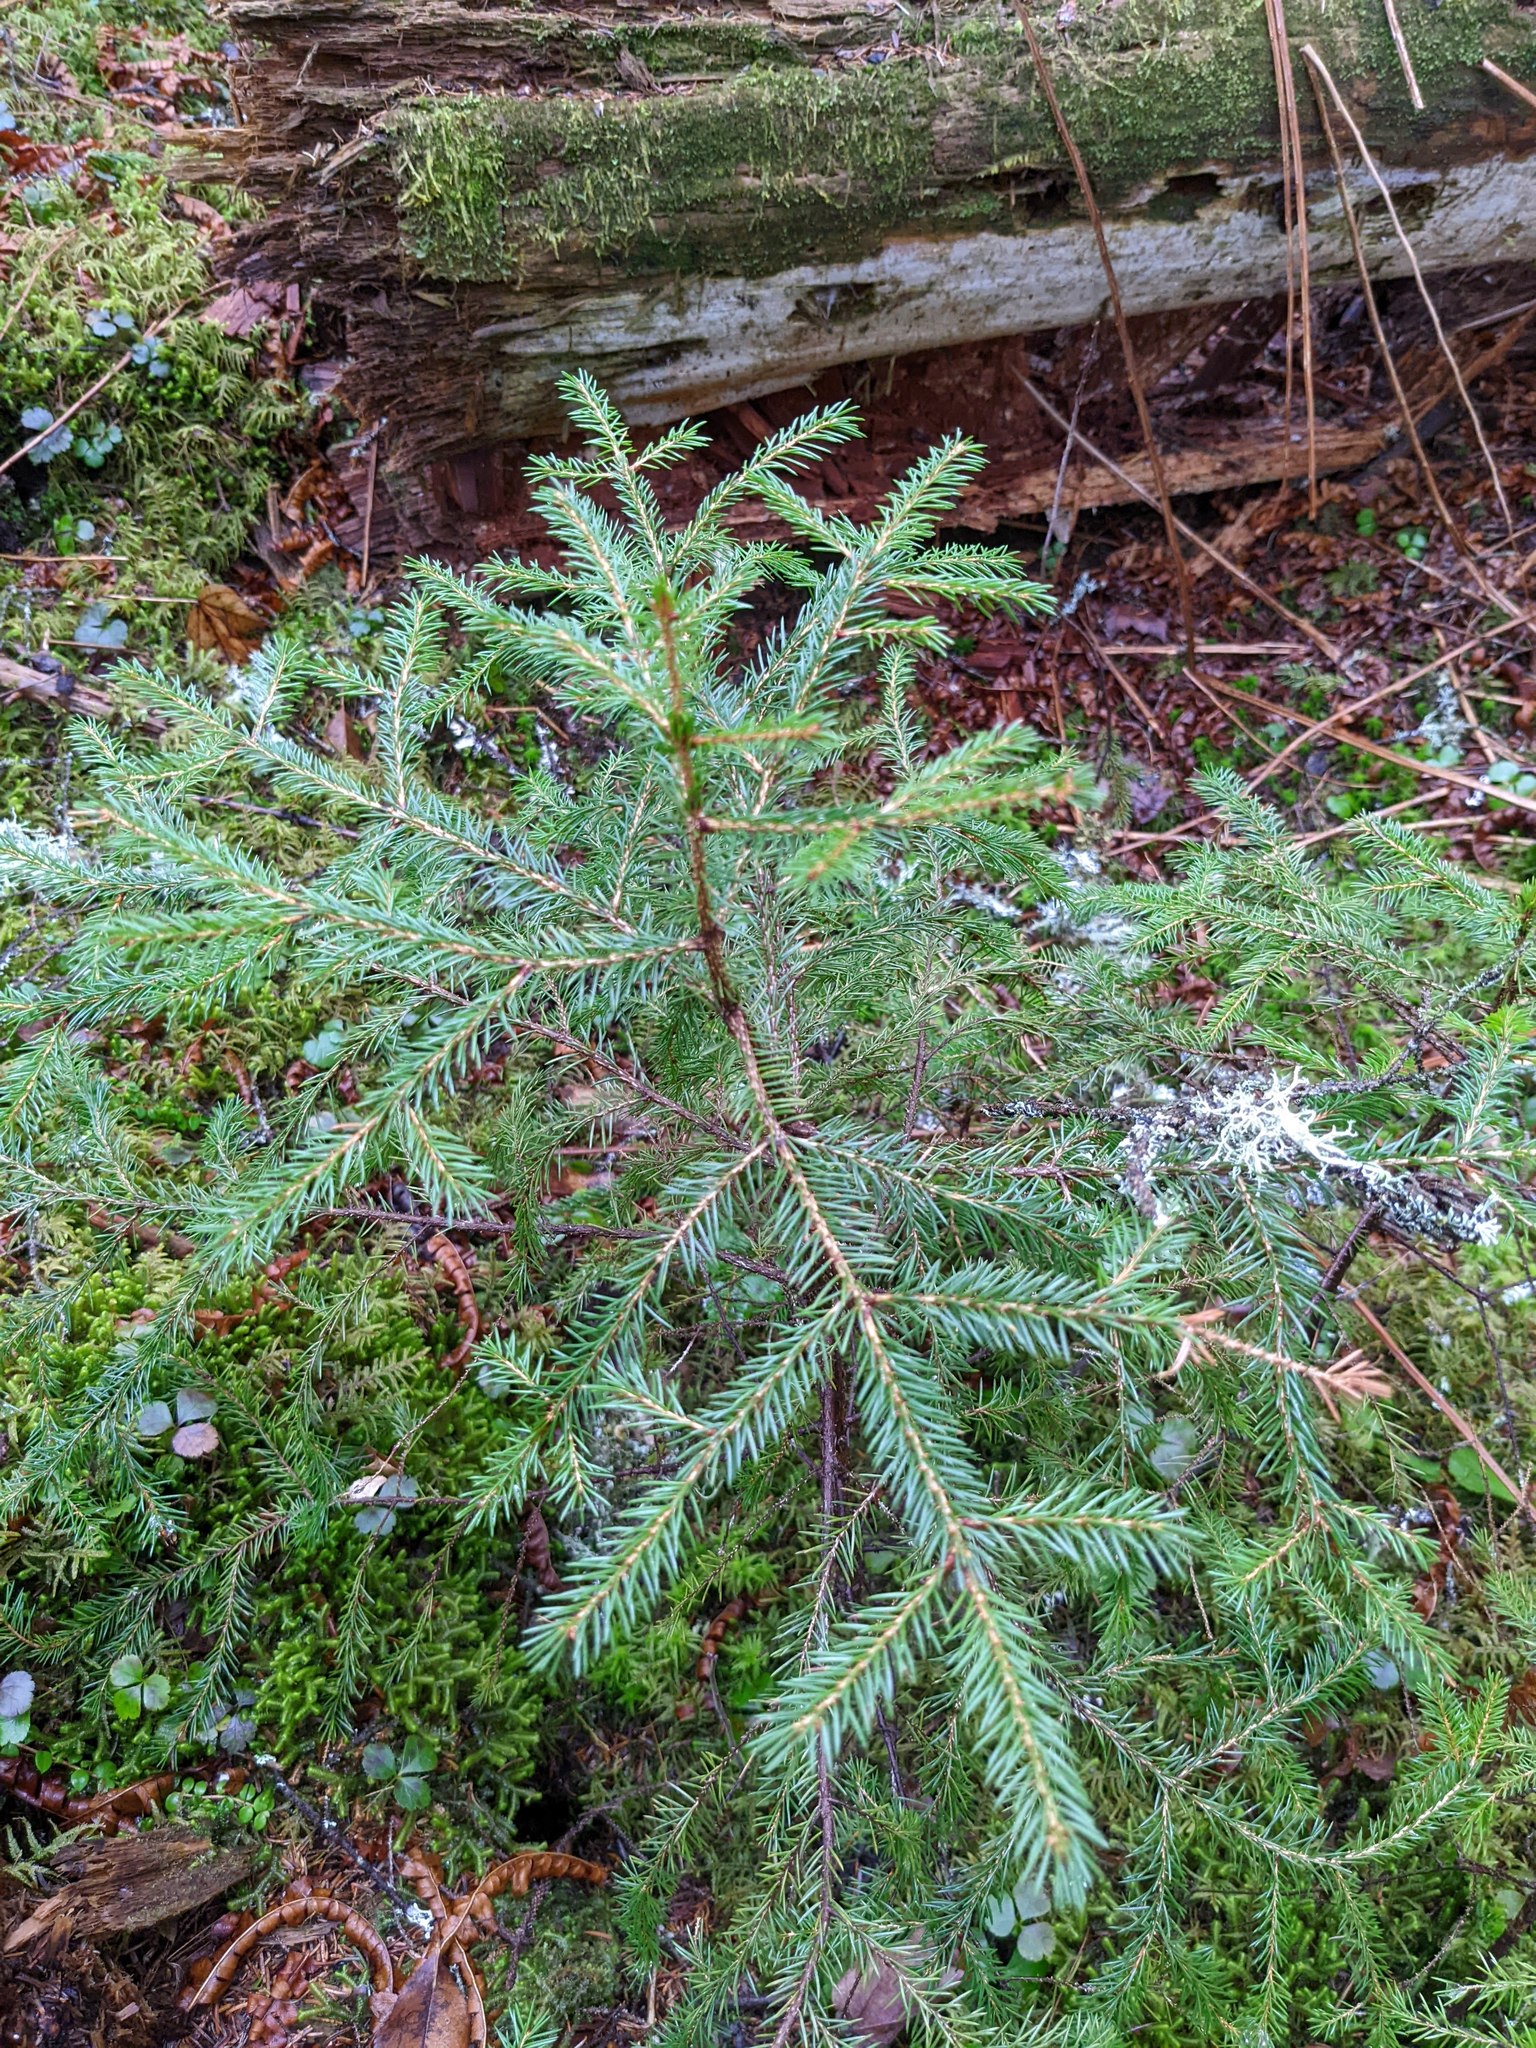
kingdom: Plantae
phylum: Tracheophyta
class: Pinopsida
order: Pinales
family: Pinaceae
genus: Picea
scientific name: Picea rubens
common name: Red spruce
